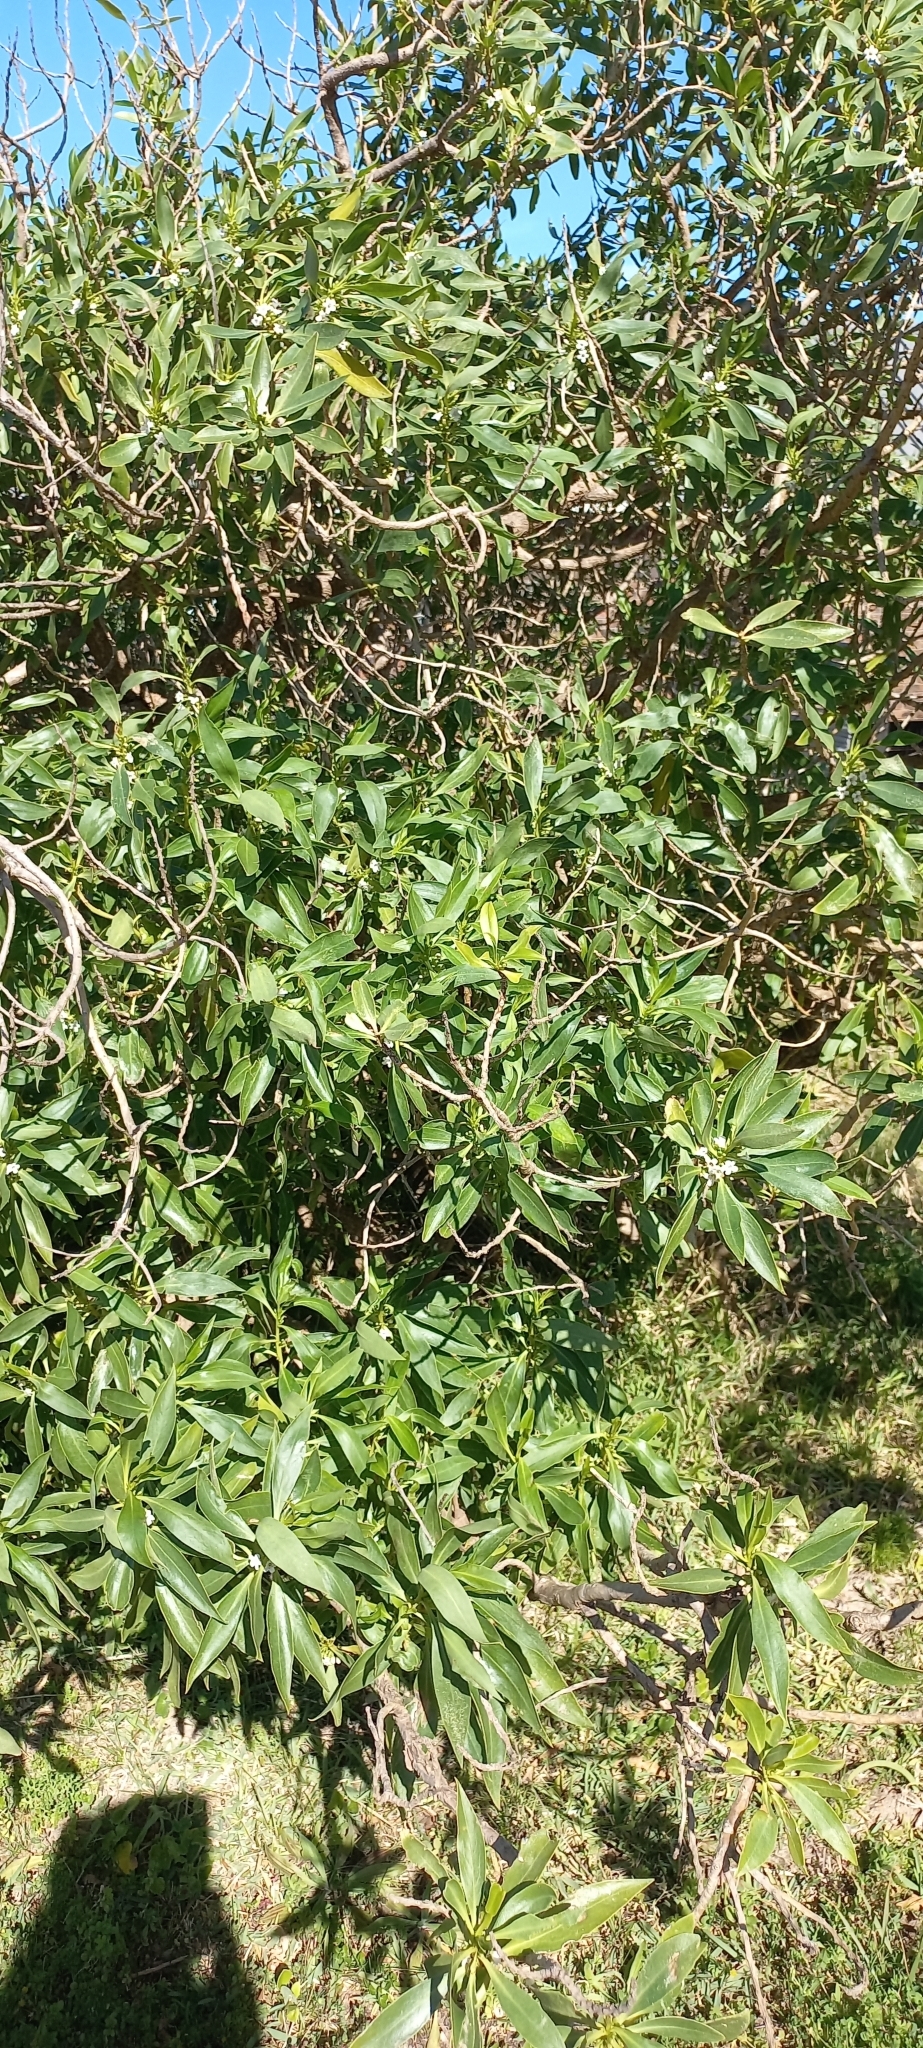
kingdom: Plantae
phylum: Tracheophyta
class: Magnoliopsida
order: Lamiales
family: Scrophulariaceae
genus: Myoporum
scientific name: Myoporum montanum
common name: Waterbush
